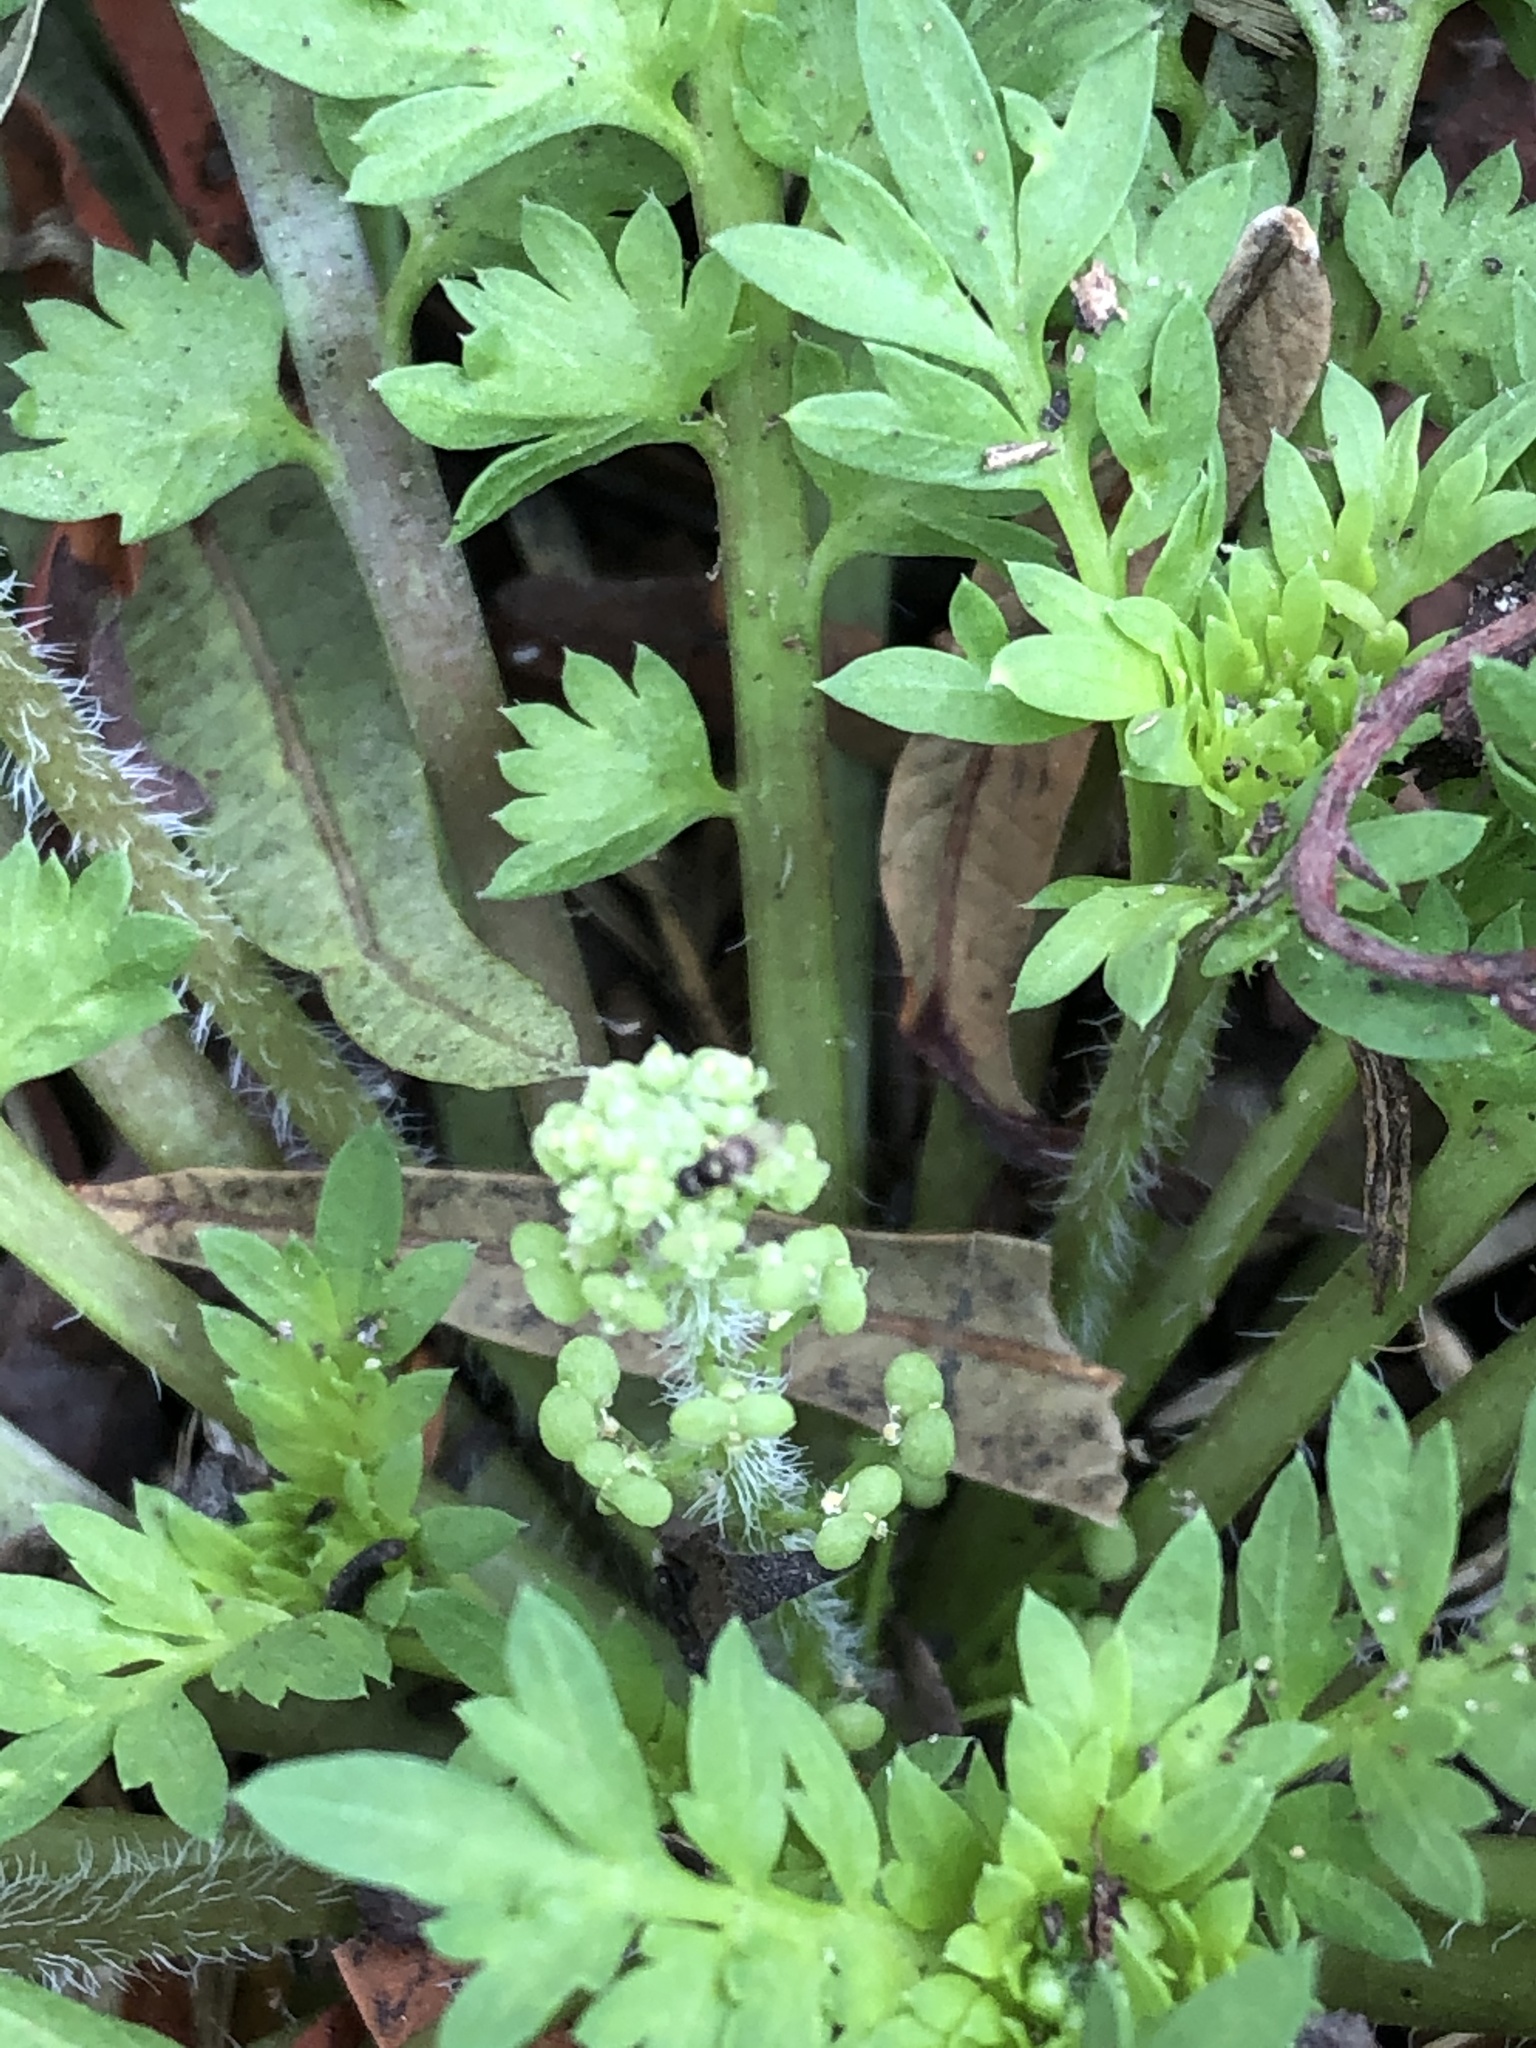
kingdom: Plantae
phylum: Tracheophyta
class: Magnoliopsida
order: Brassicales
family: Brassicaceae
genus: Lepidium
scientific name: Lepidium didymum
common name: Lesser swinecress
